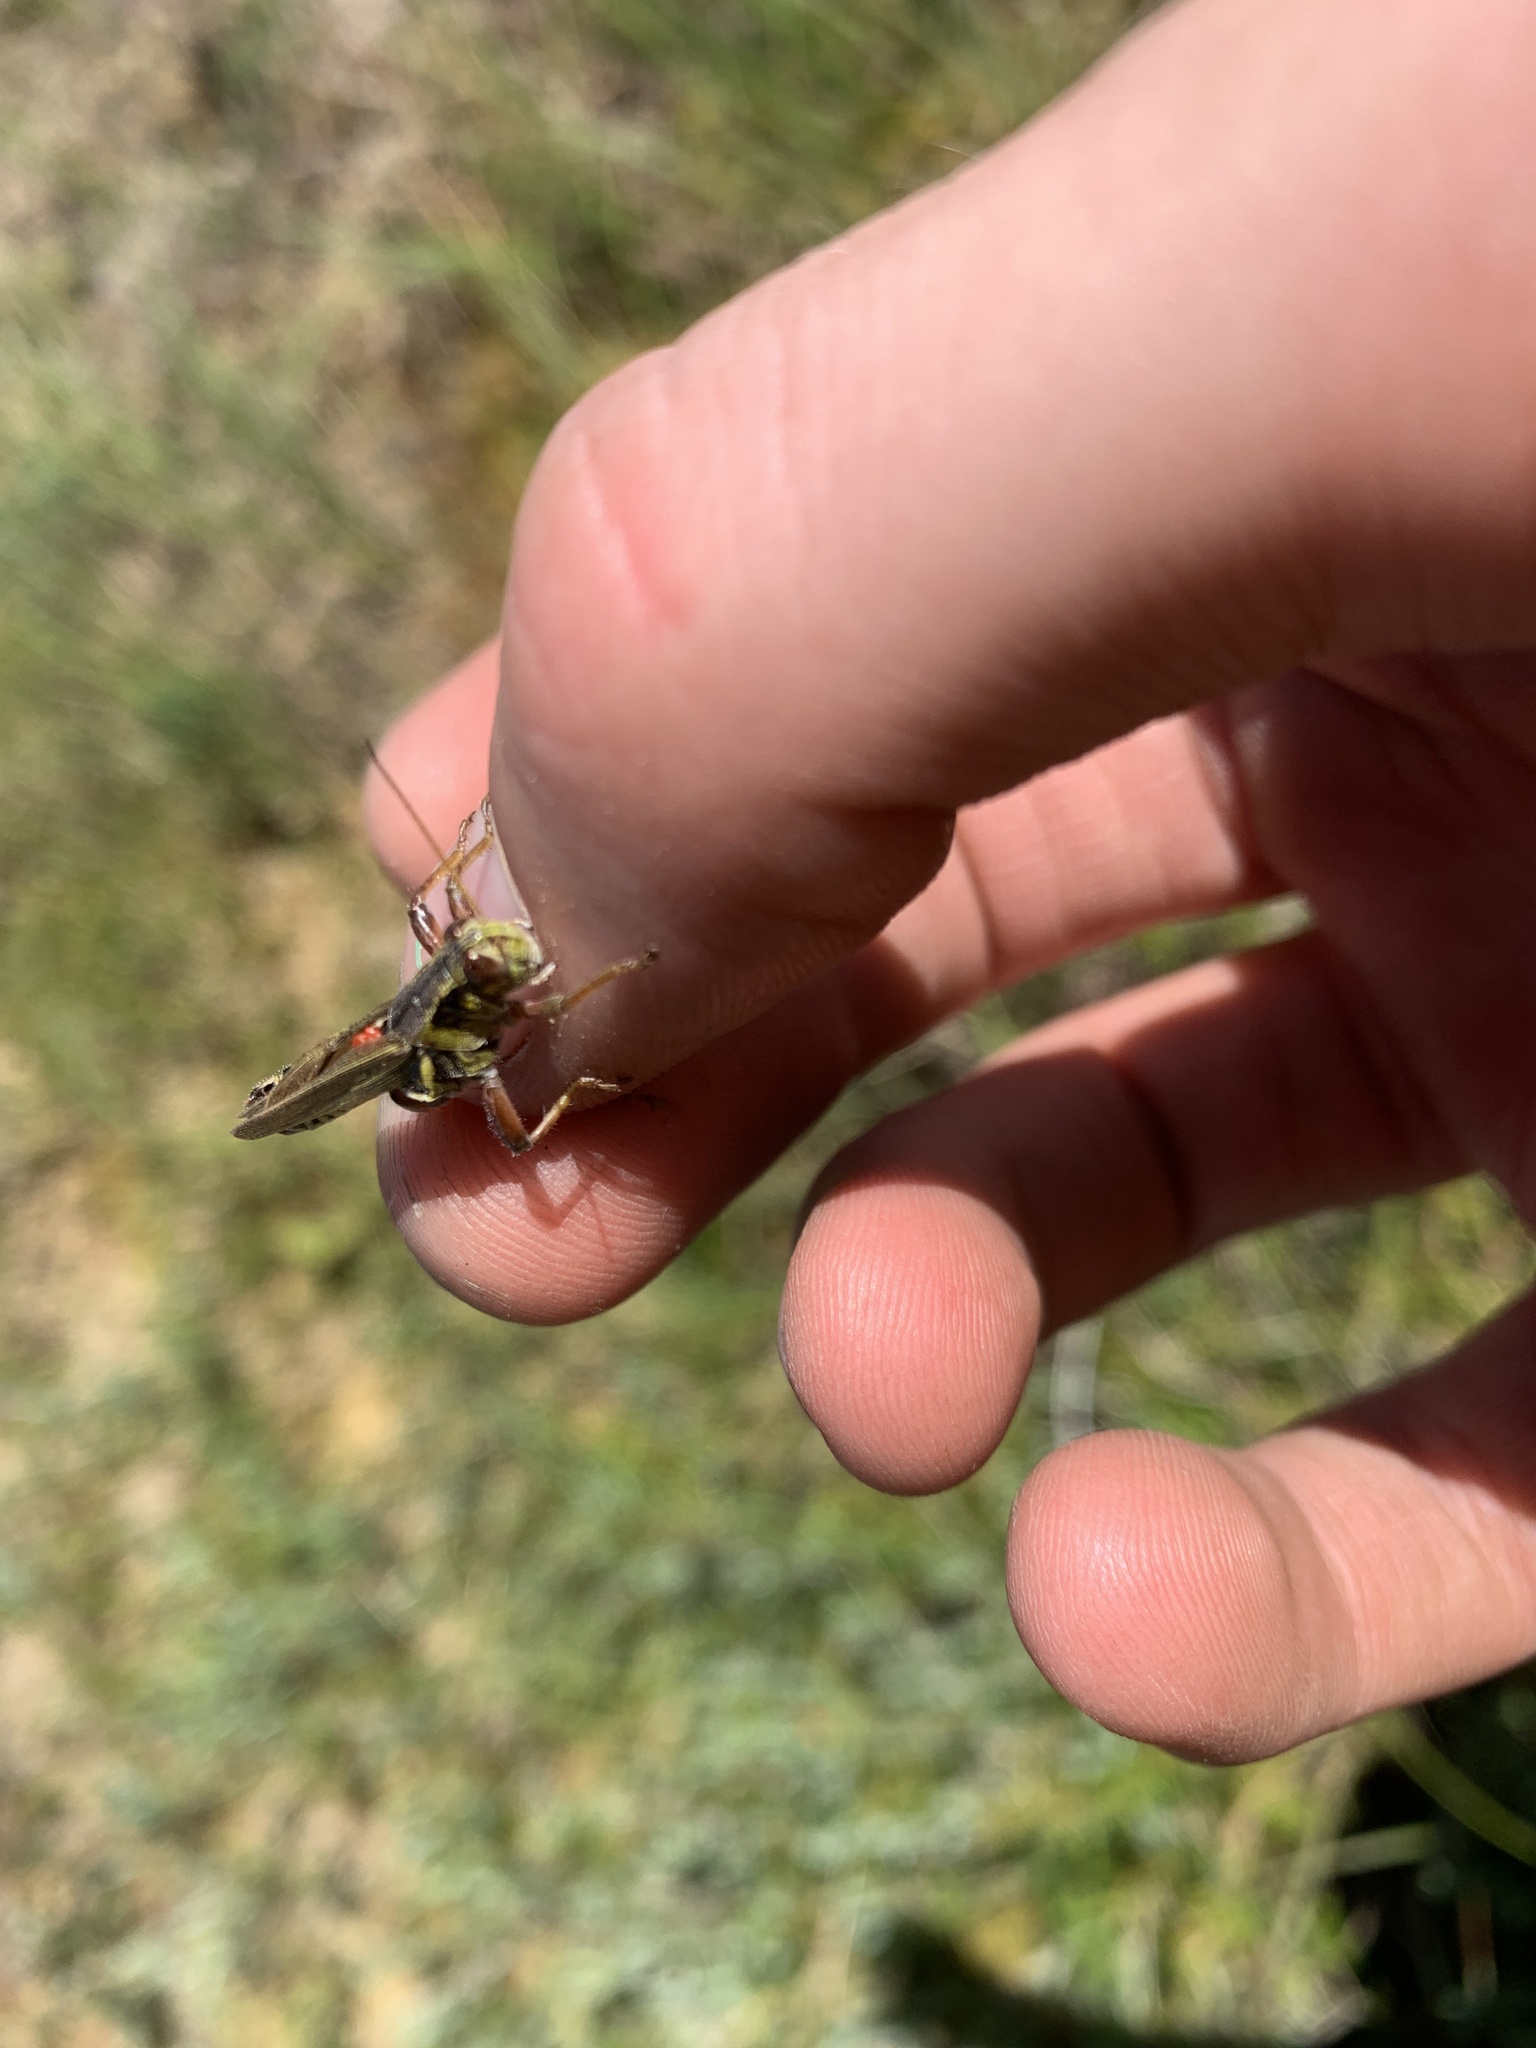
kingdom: Animalia
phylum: Arthropoda
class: Insecta
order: Orthoptera
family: Acrididae
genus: Melanoplus
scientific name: Melanoplus borealis
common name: Northern grasshopper
